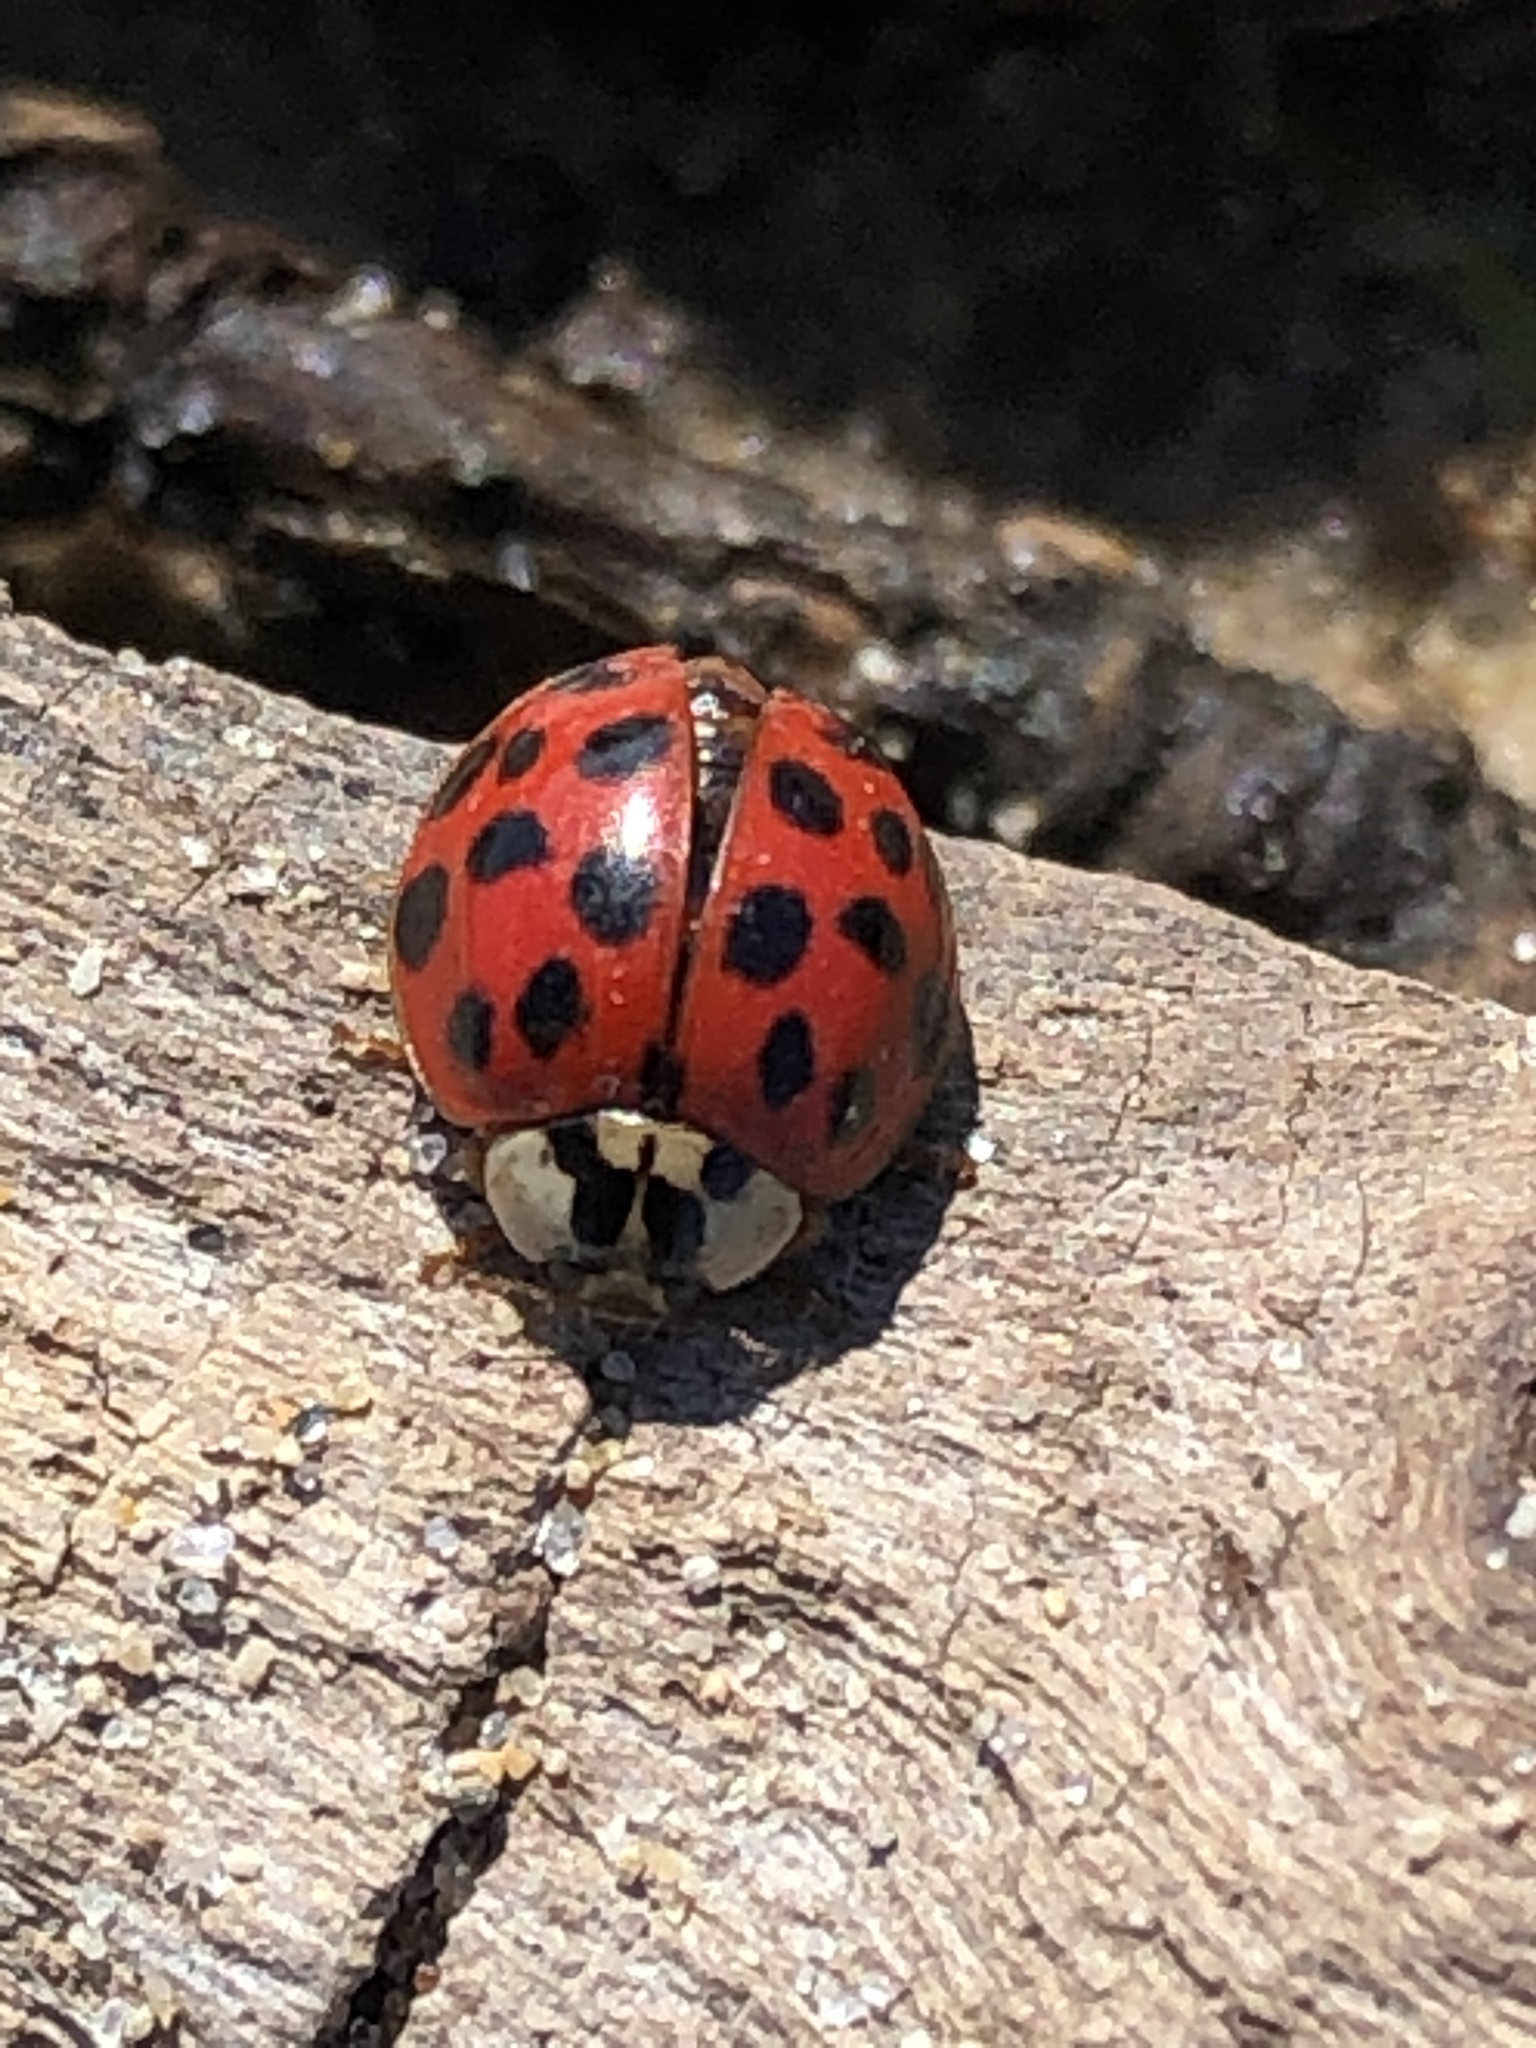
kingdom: Animalia
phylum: Arthropoda
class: Insecta
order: Coleoptera
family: Coccinellidae
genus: Harmonia
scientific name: Harmonia axyridis
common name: Harlequin ladybird
